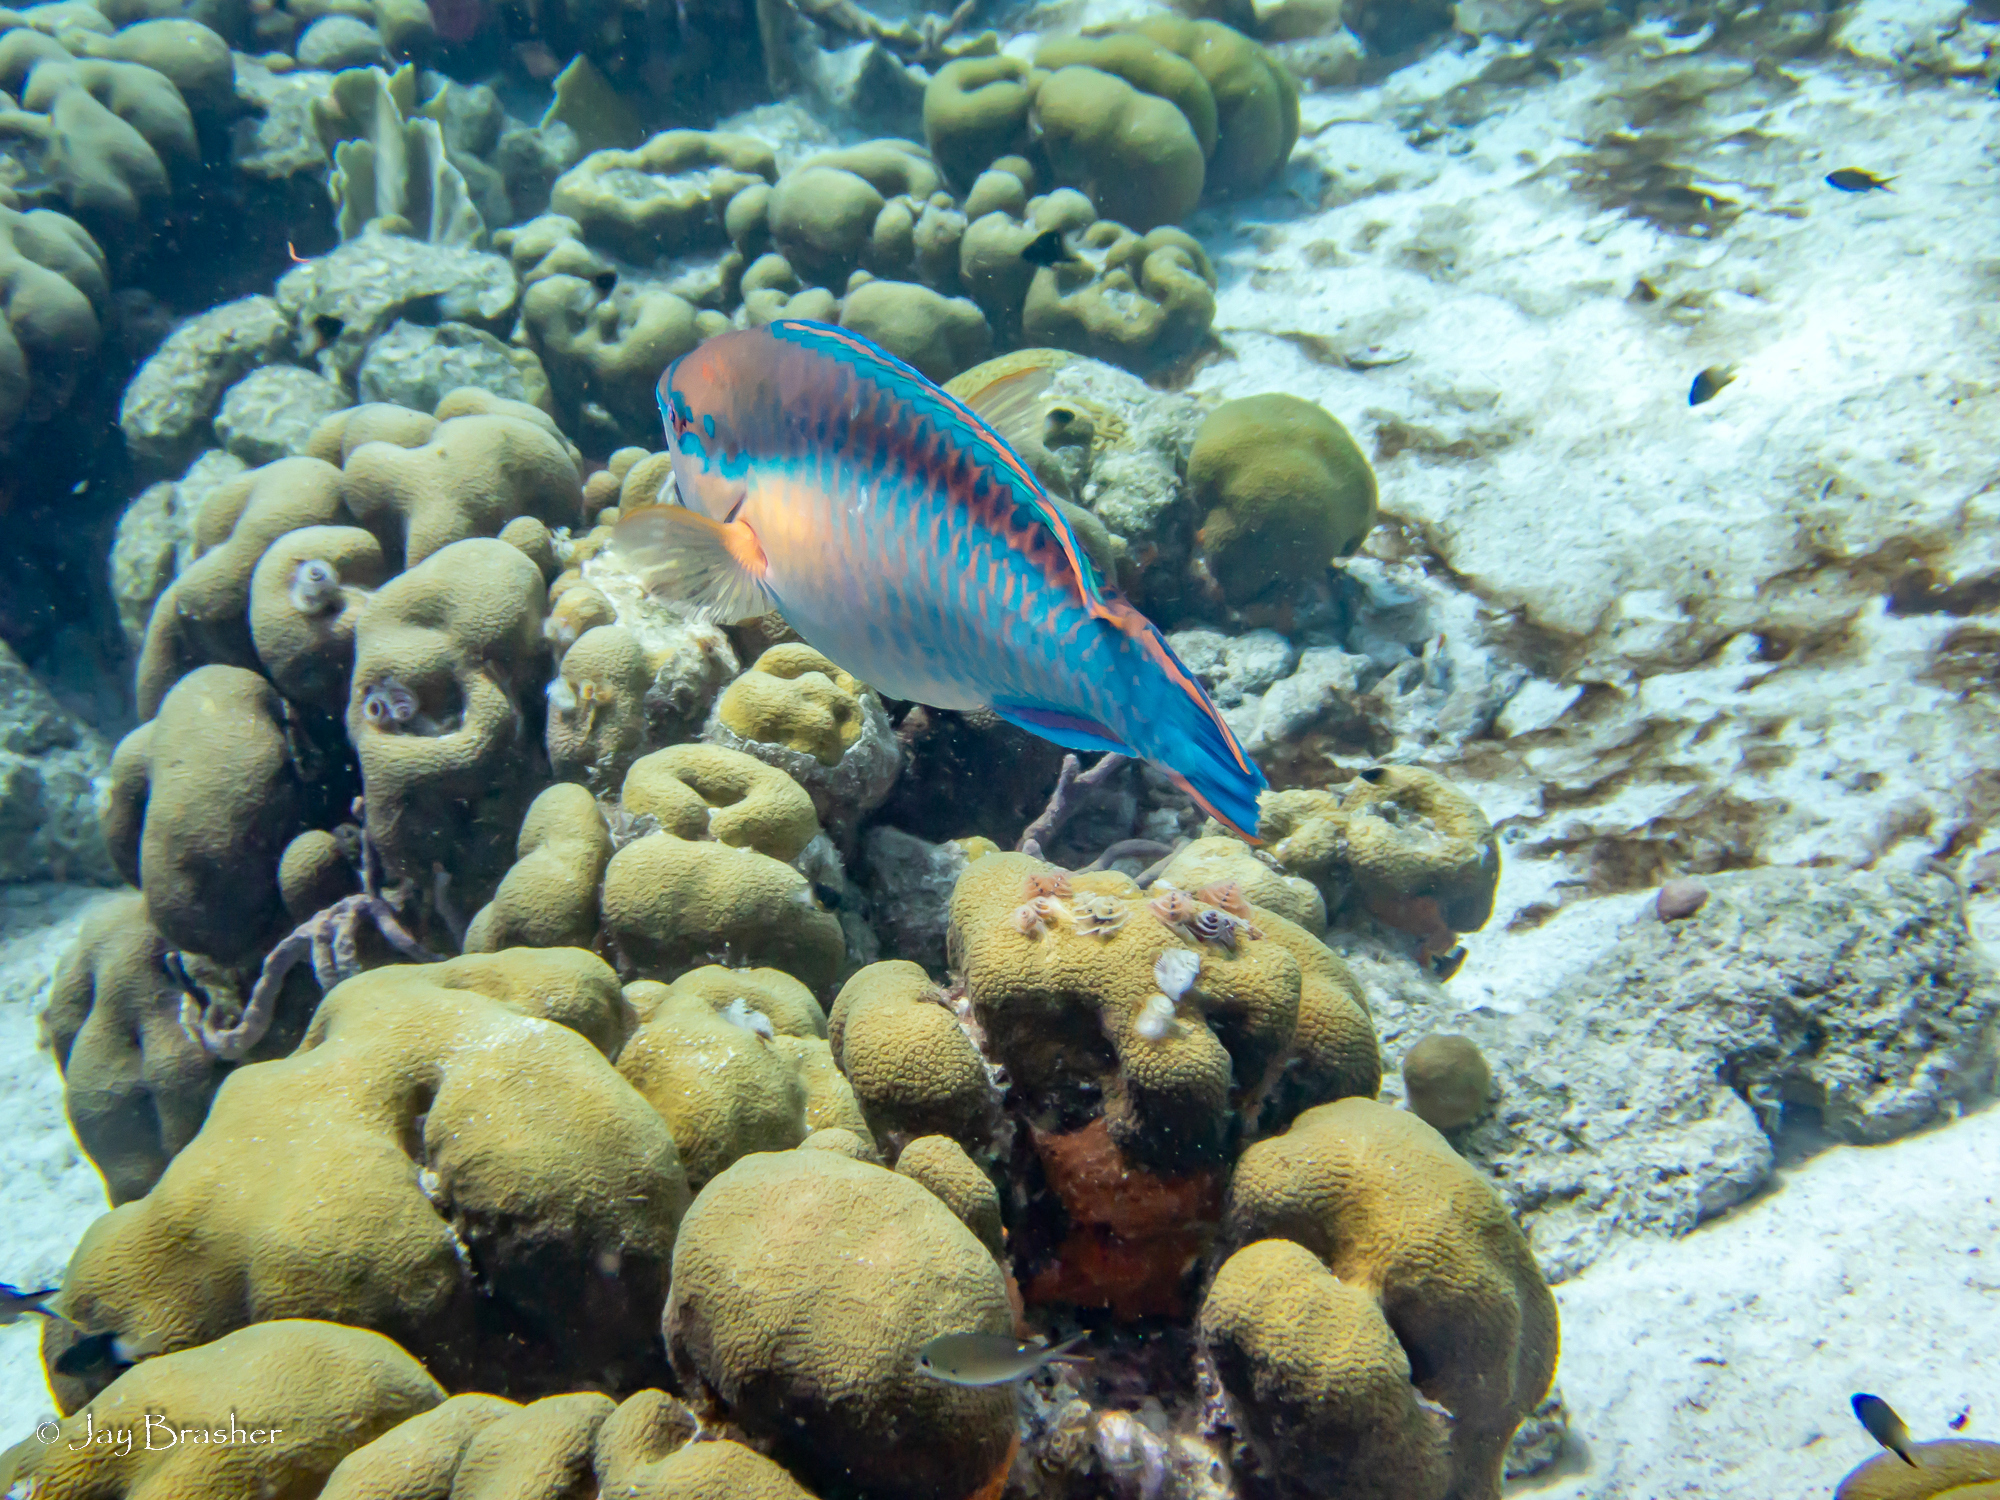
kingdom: Animalia
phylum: Chordata
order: Perciformes
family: Scaridae
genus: Scarus
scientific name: Scarus taeniopterus
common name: Princess parrotfish
